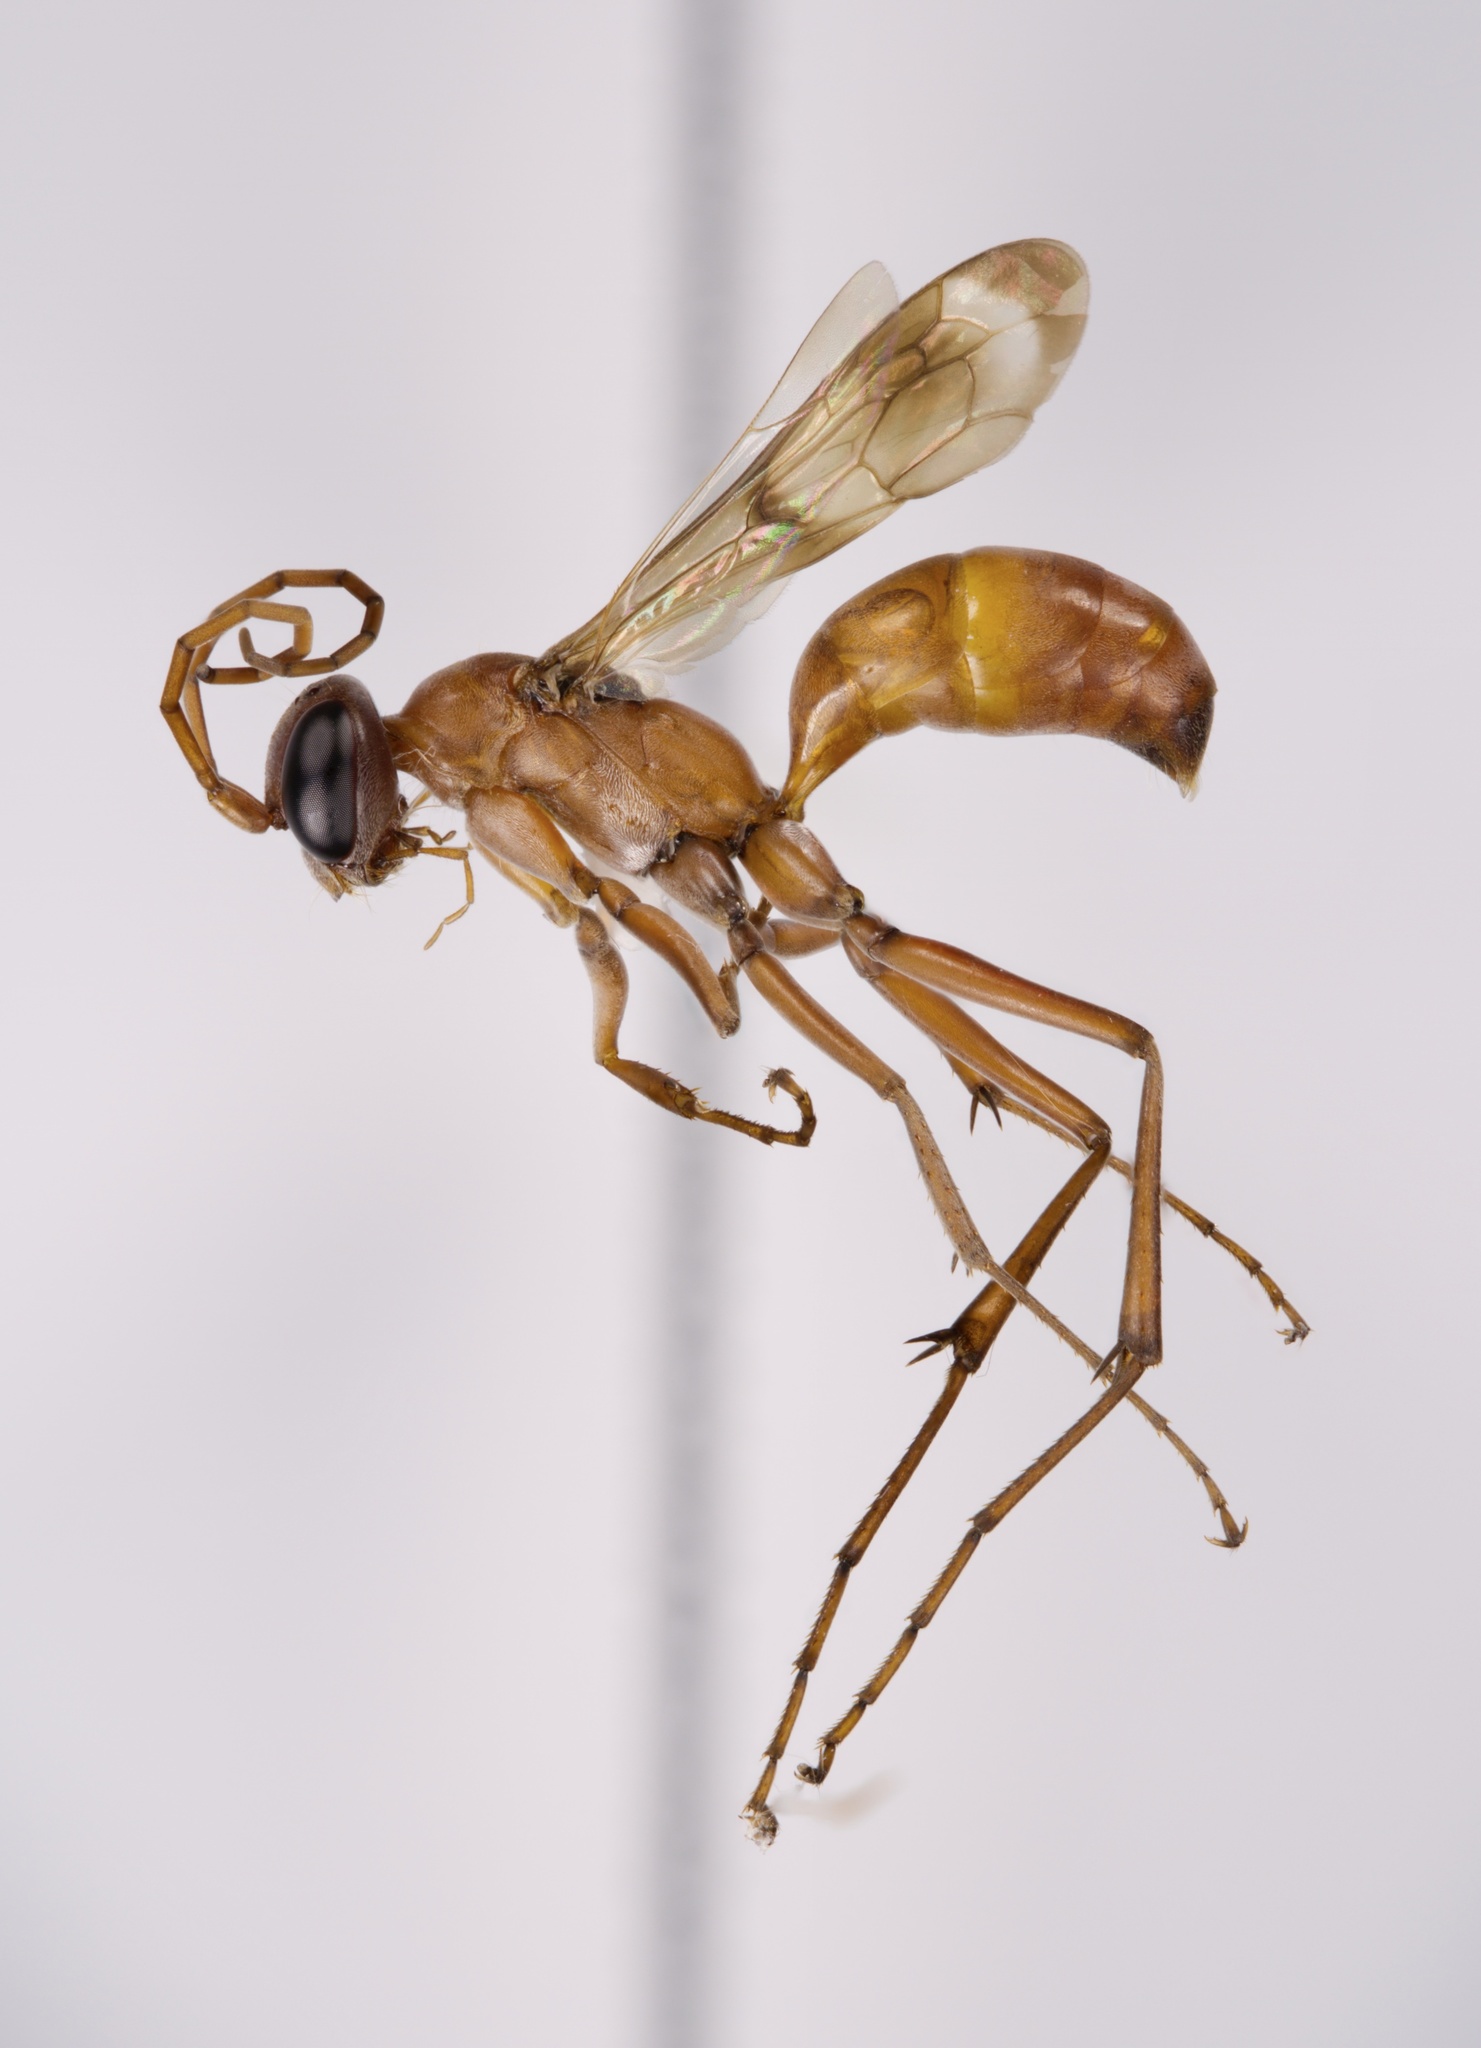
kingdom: Animalia
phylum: Arthropoda
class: Insecta
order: Hymenoptera
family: Pompilidae
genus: Ageniella
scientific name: Ageniella accepta
